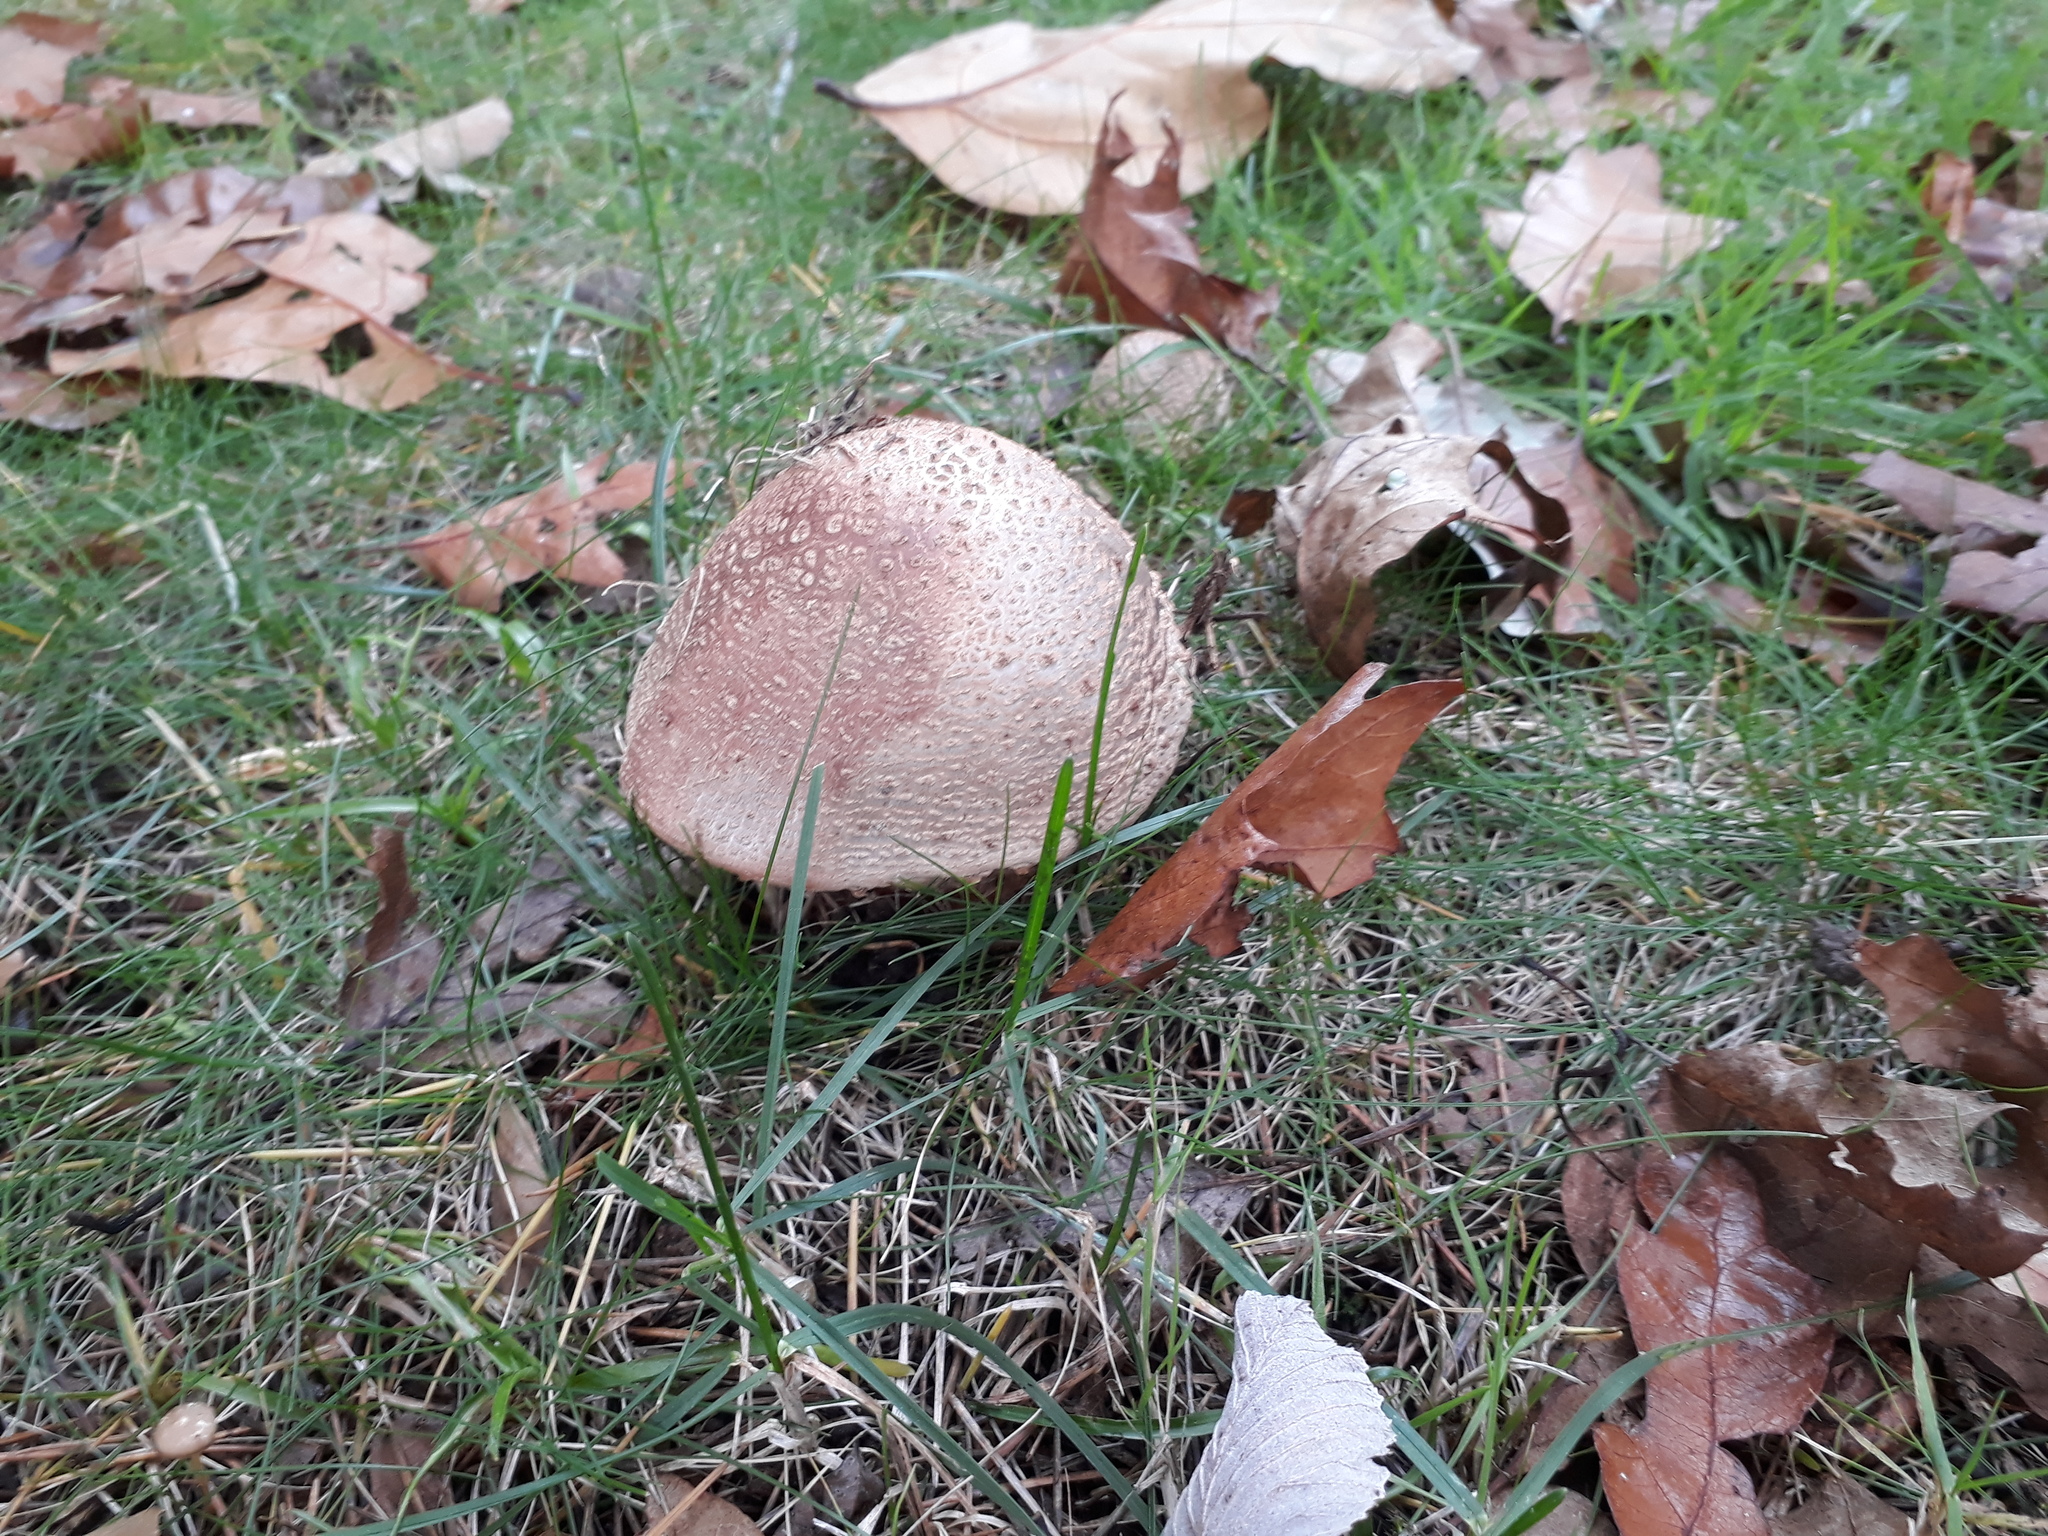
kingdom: Fungi
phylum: Basidiomycota
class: Agaricomycetes
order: Agaricales
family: Amanitaceae
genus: Amanita
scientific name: Amanita rubescens
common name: Blusher
